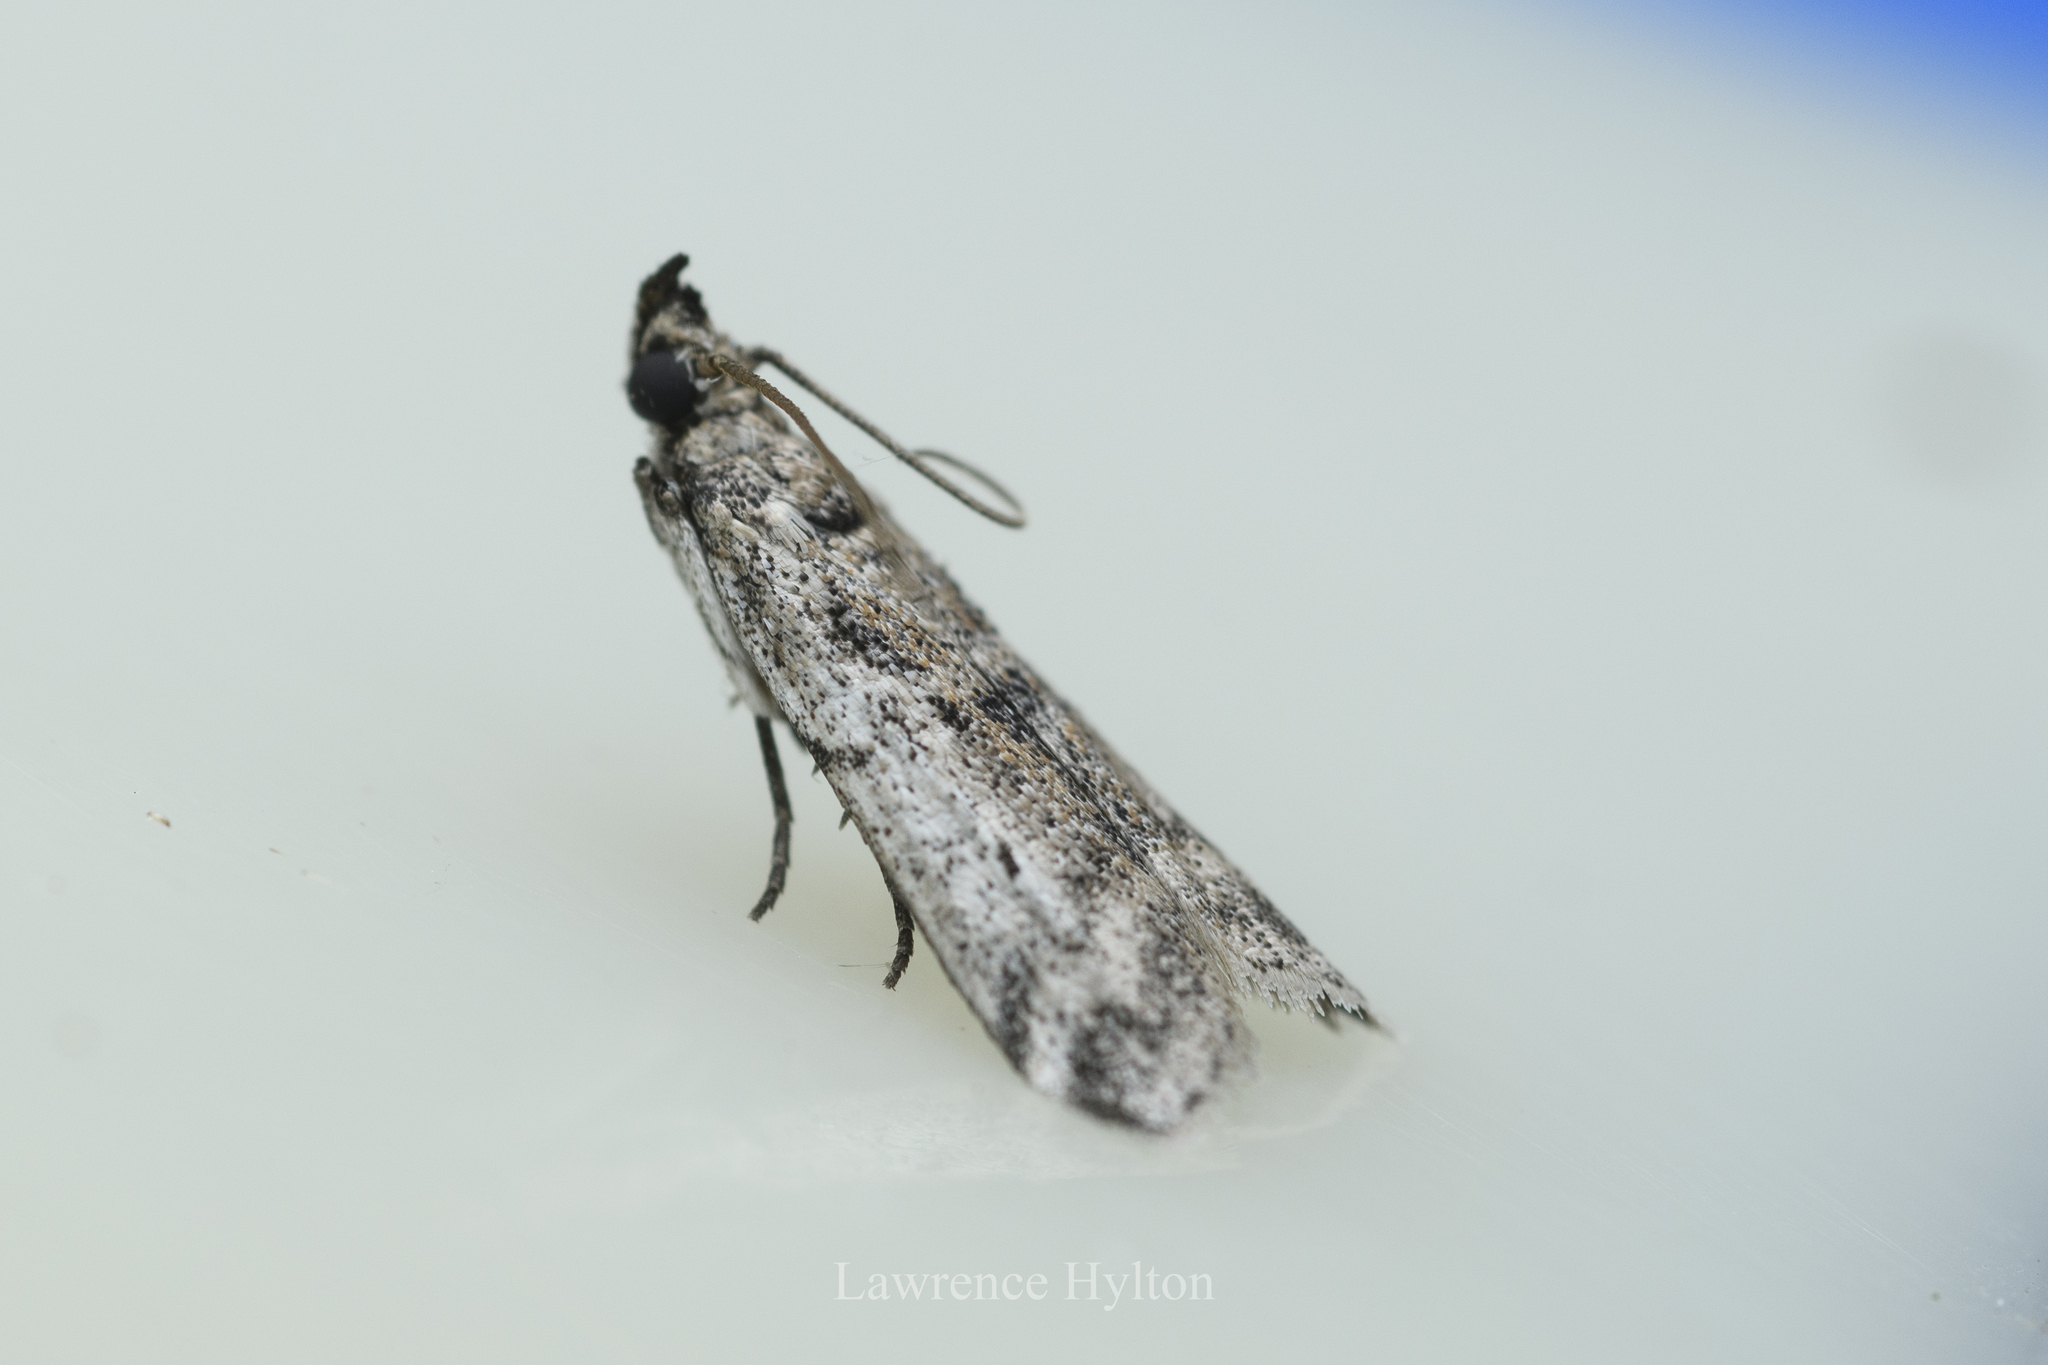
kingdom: Animalia
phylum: Arthropoda
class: Insecta
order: Lepidoptera
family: Pyralidae
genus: Vinicia
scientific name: Vinicia
